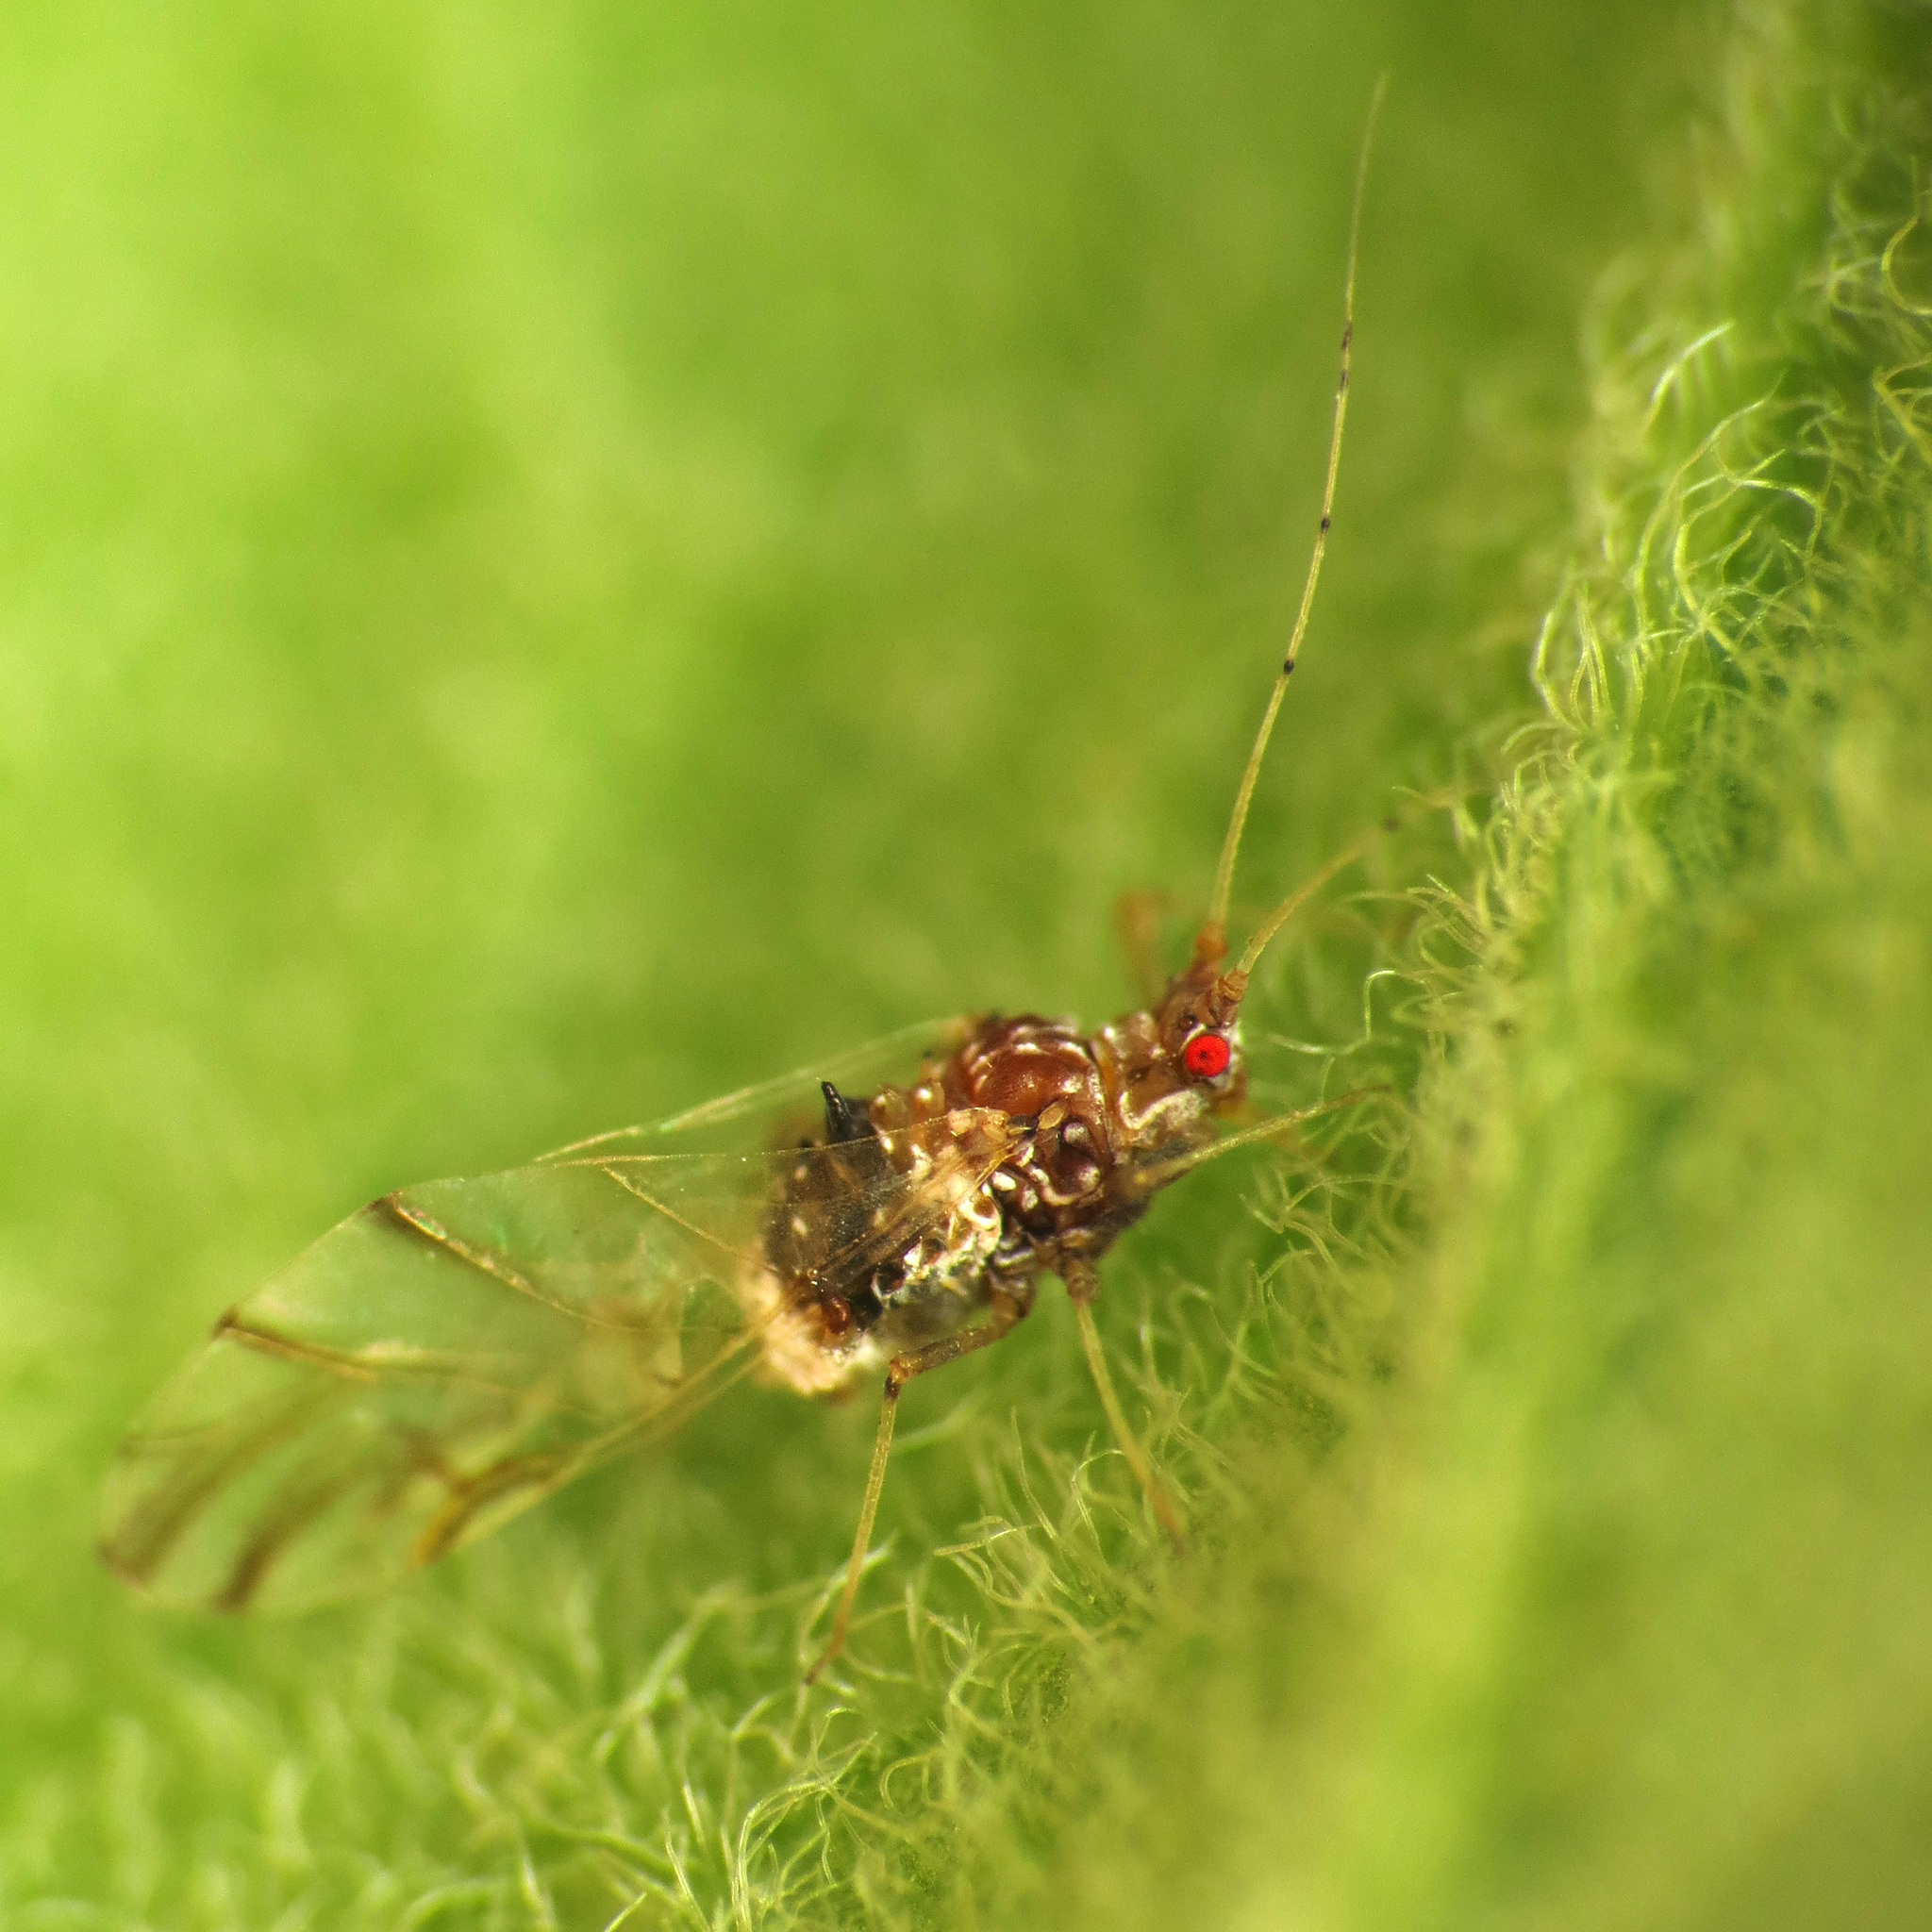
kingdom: Animalia
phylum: Arthropoda
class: Insecta
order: Hemiptera
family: Aphididae
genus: Drepanaphis
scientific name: Drepanaphis acerifoliae
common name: Painted maple aphid
